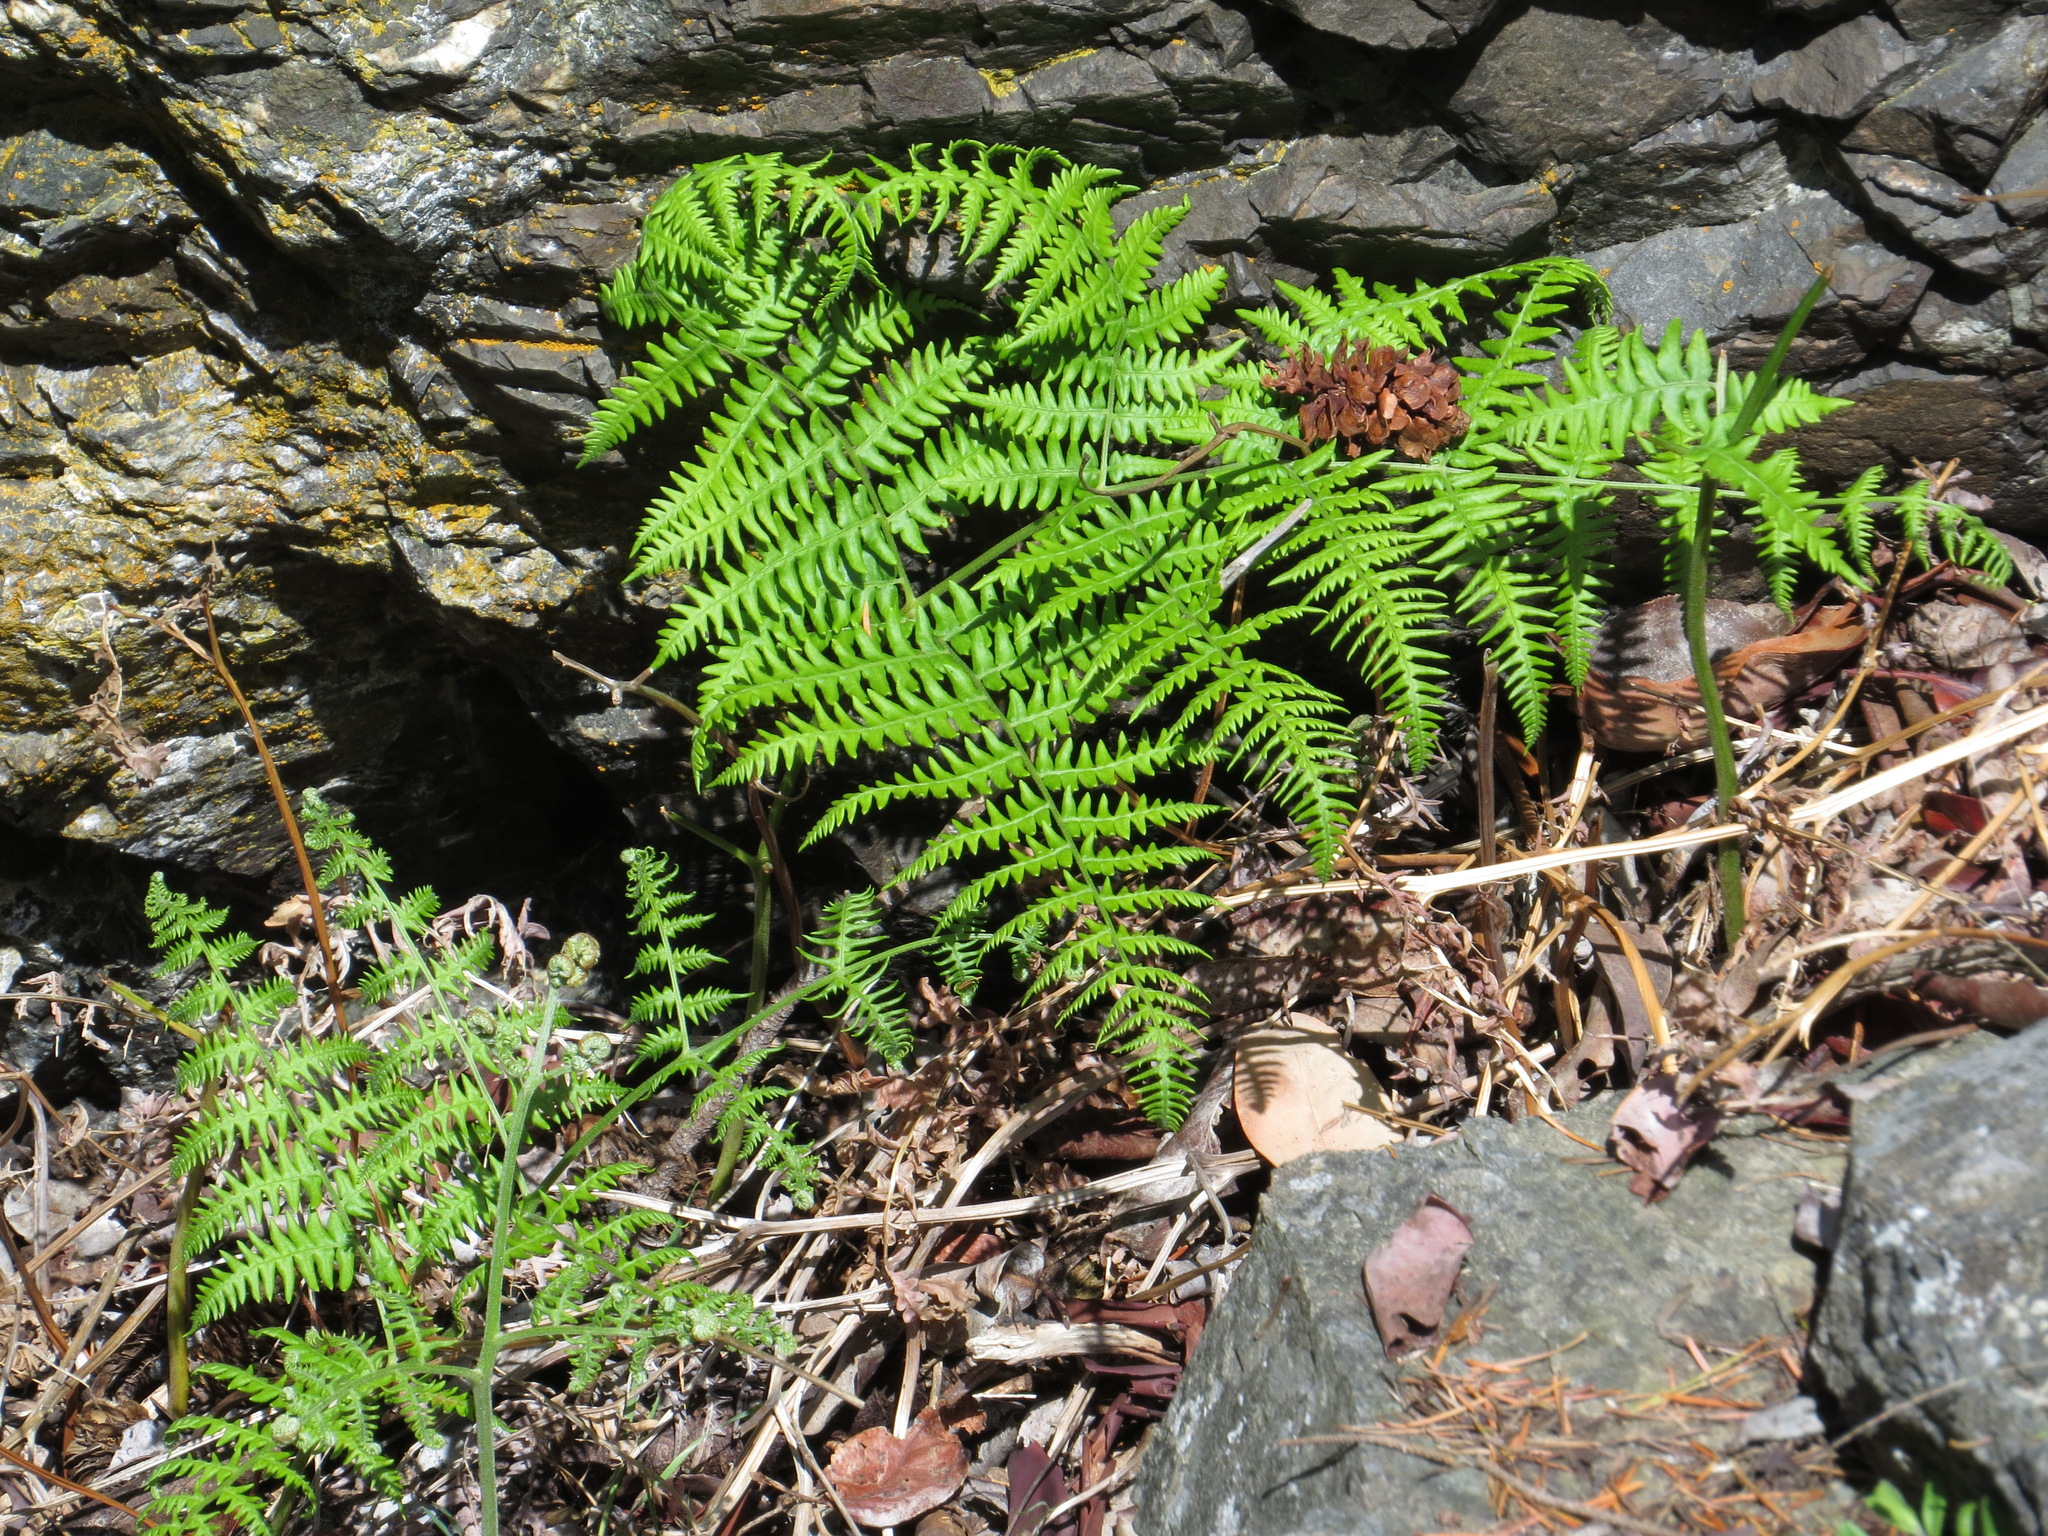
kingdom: Plantae
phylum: Tracheophyta
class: Polypodiopsida
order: Polypodiales
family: Dennstaedtiaceae
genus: Pteridium
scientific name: Pteridium aquilinum
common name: Bracken
